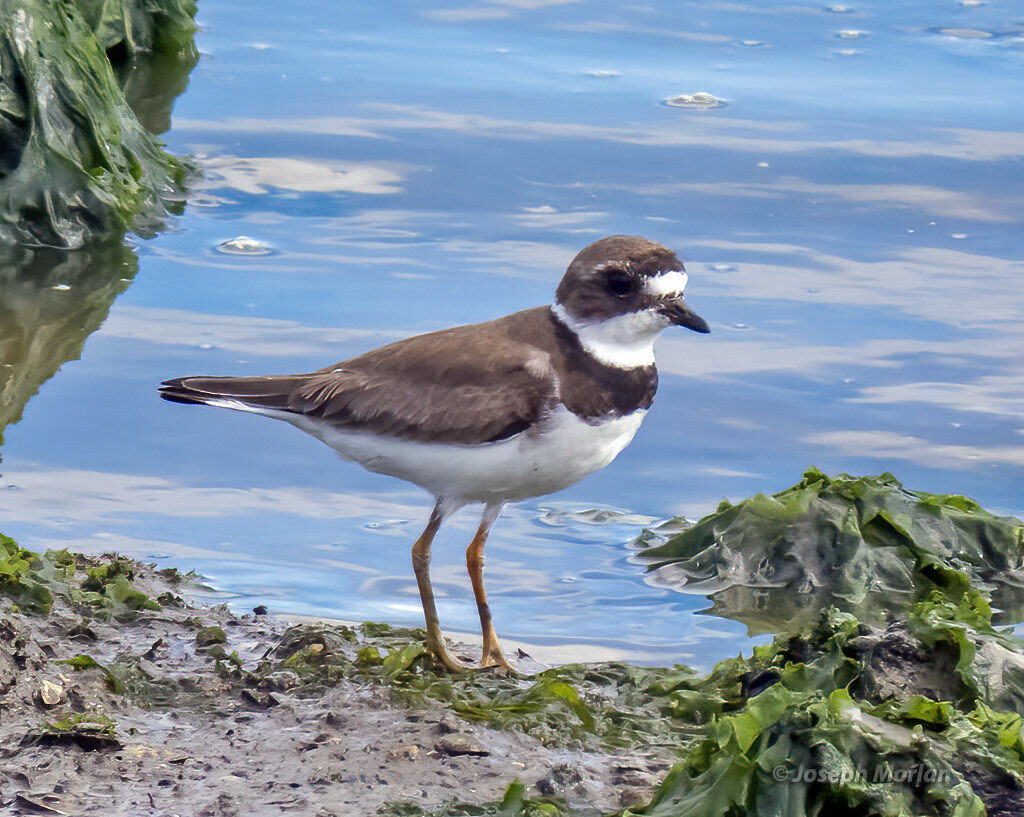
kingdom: Animalia
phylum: Chordata
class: Aves
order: Charadriiformes
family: Charadriidae
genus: Charadrius
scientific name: Charadrius semipalmatus
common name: Semipalmated plover
